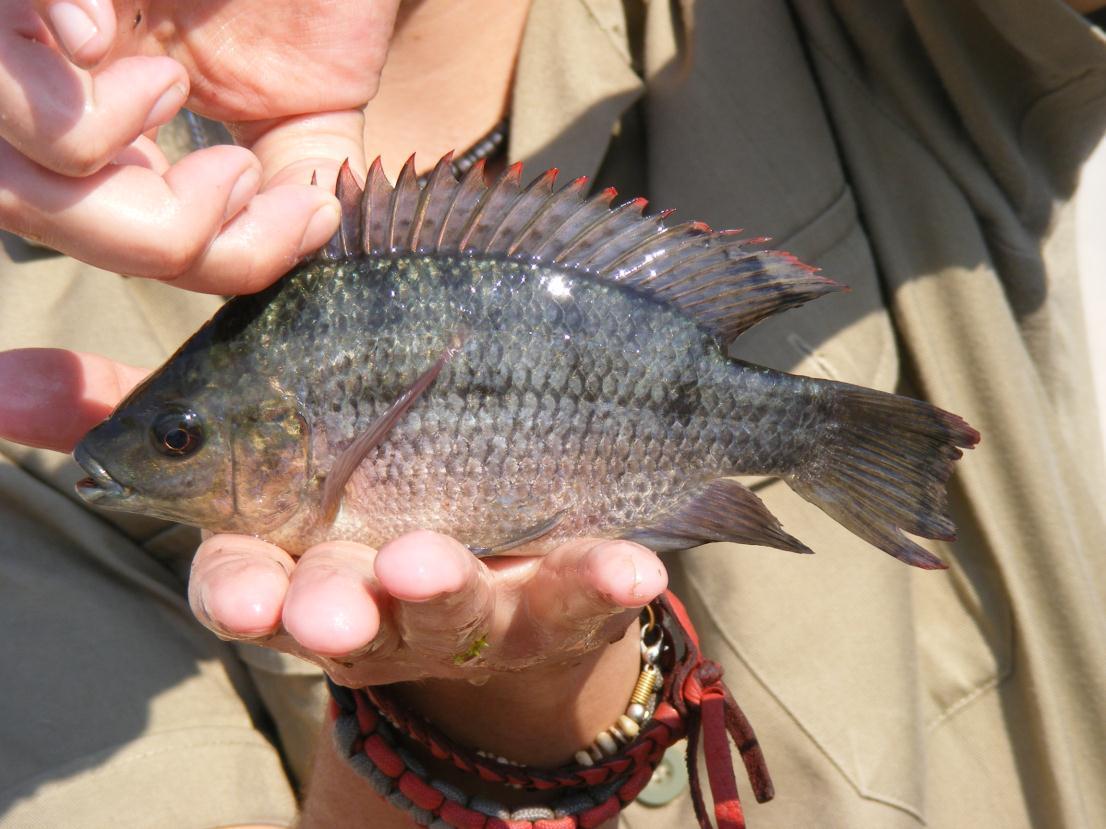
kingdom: Animalia
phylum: Chordata
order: Perciformes
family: Cichlidae
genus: Oreochromis
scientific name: Oreochromis mossambicus
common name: Mozambique tilapia
